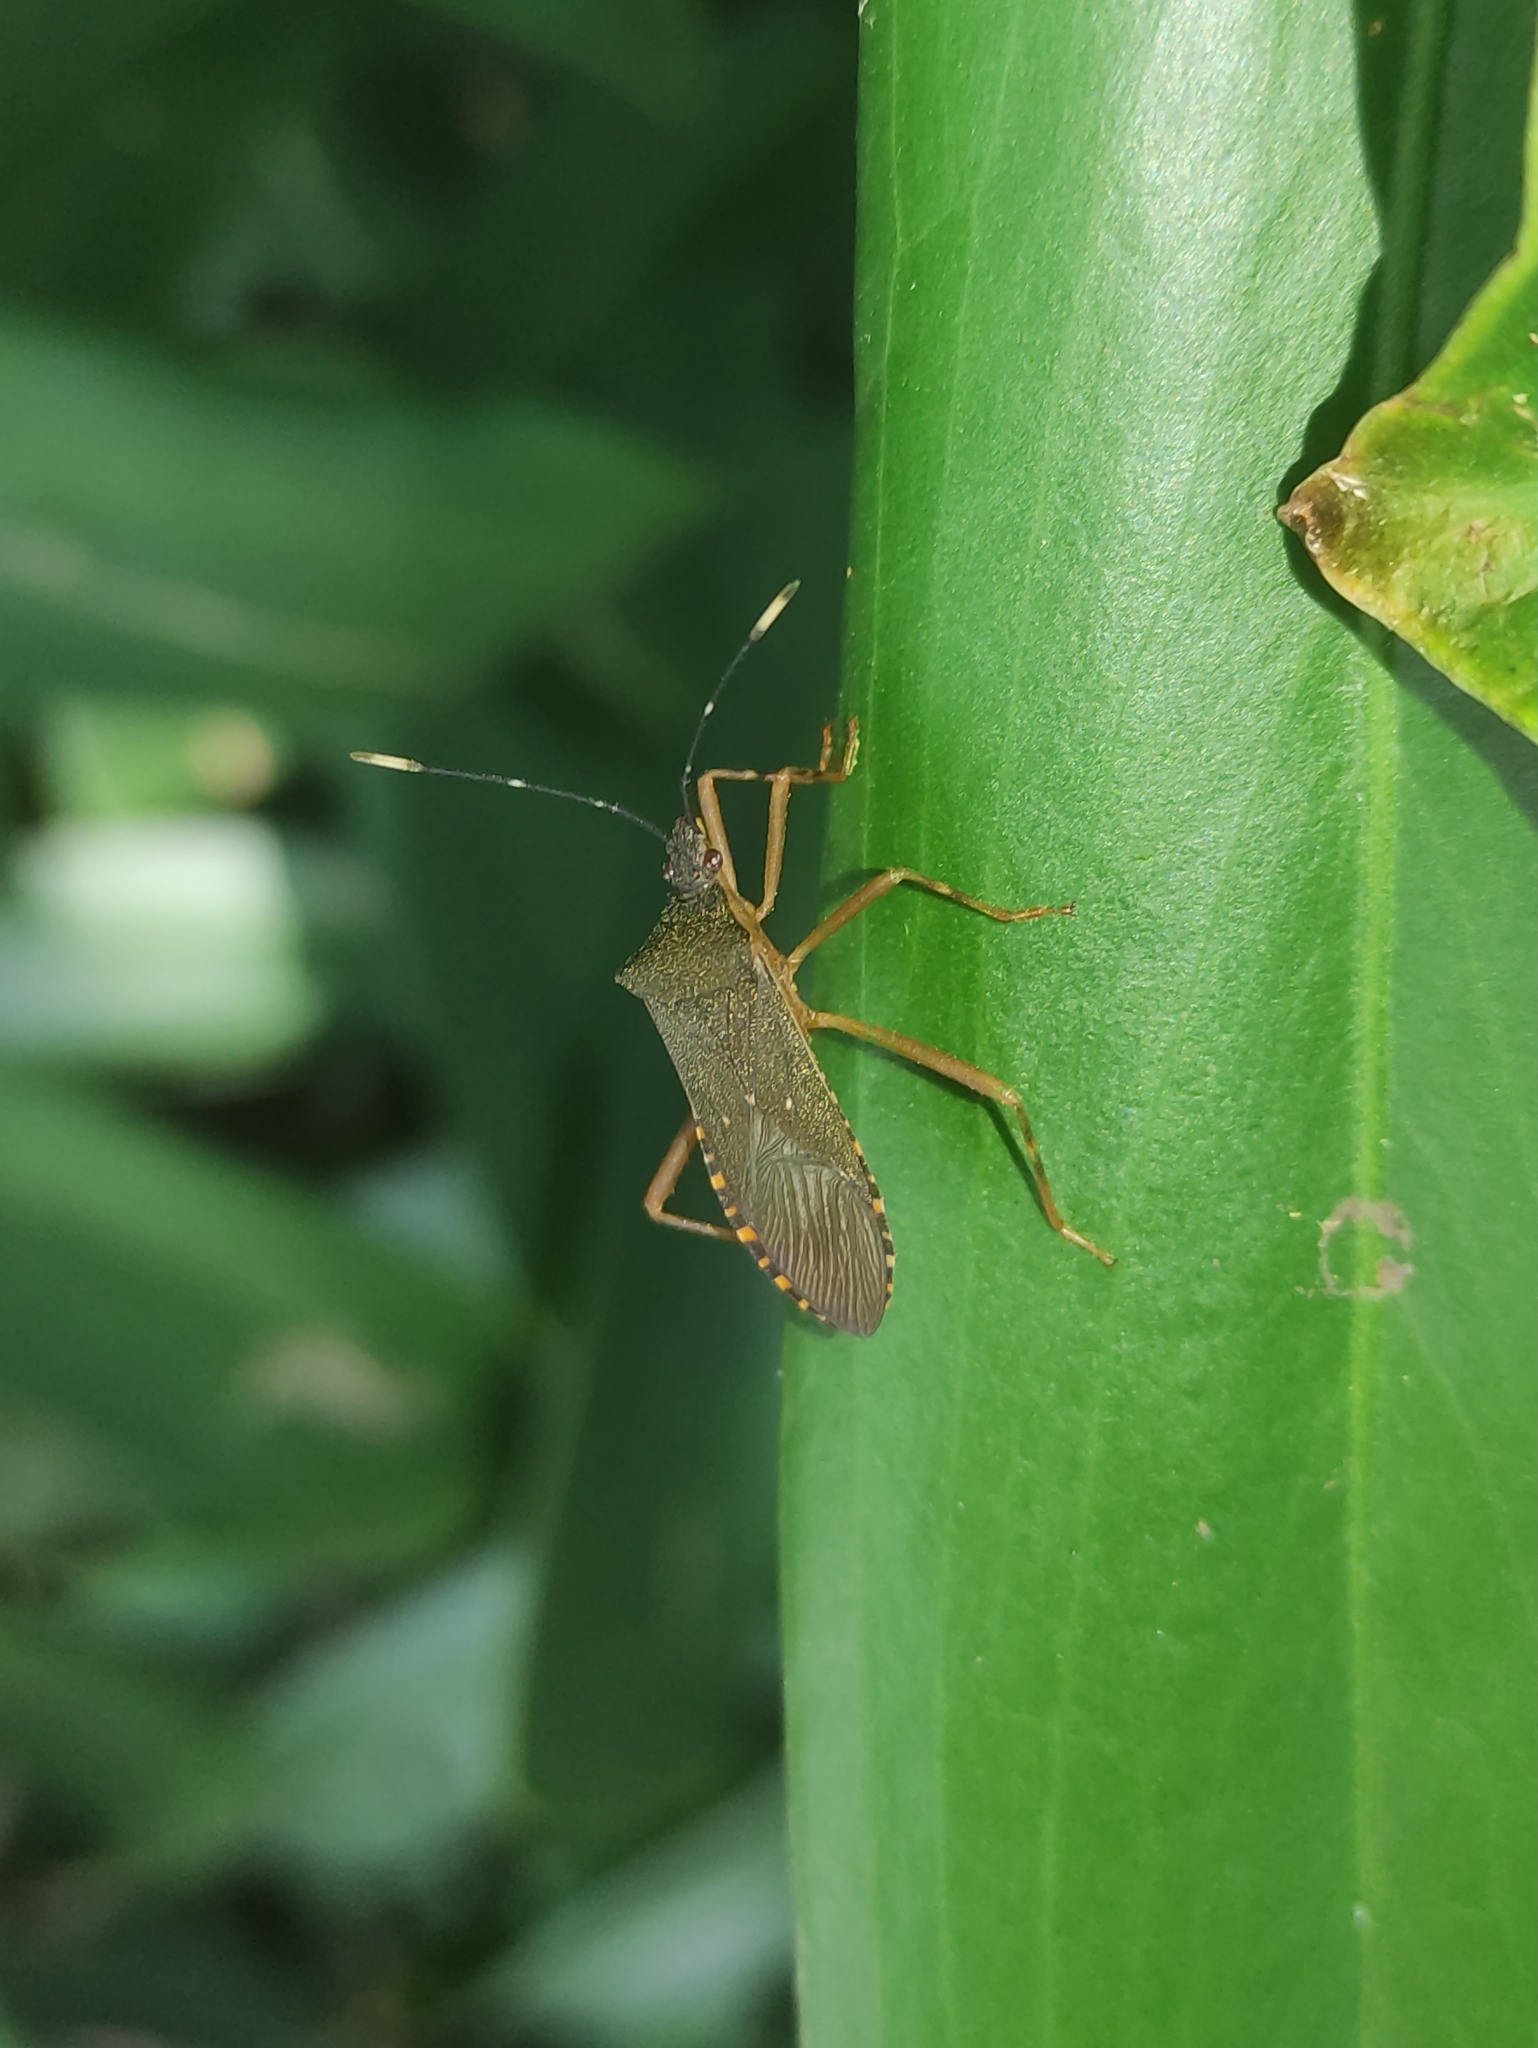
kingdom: Animalia
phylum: Arthropoda
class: Insecta
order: Hemiptera
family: Coreidae
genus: Leptoscelis
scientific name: Leptoscelis elongator
